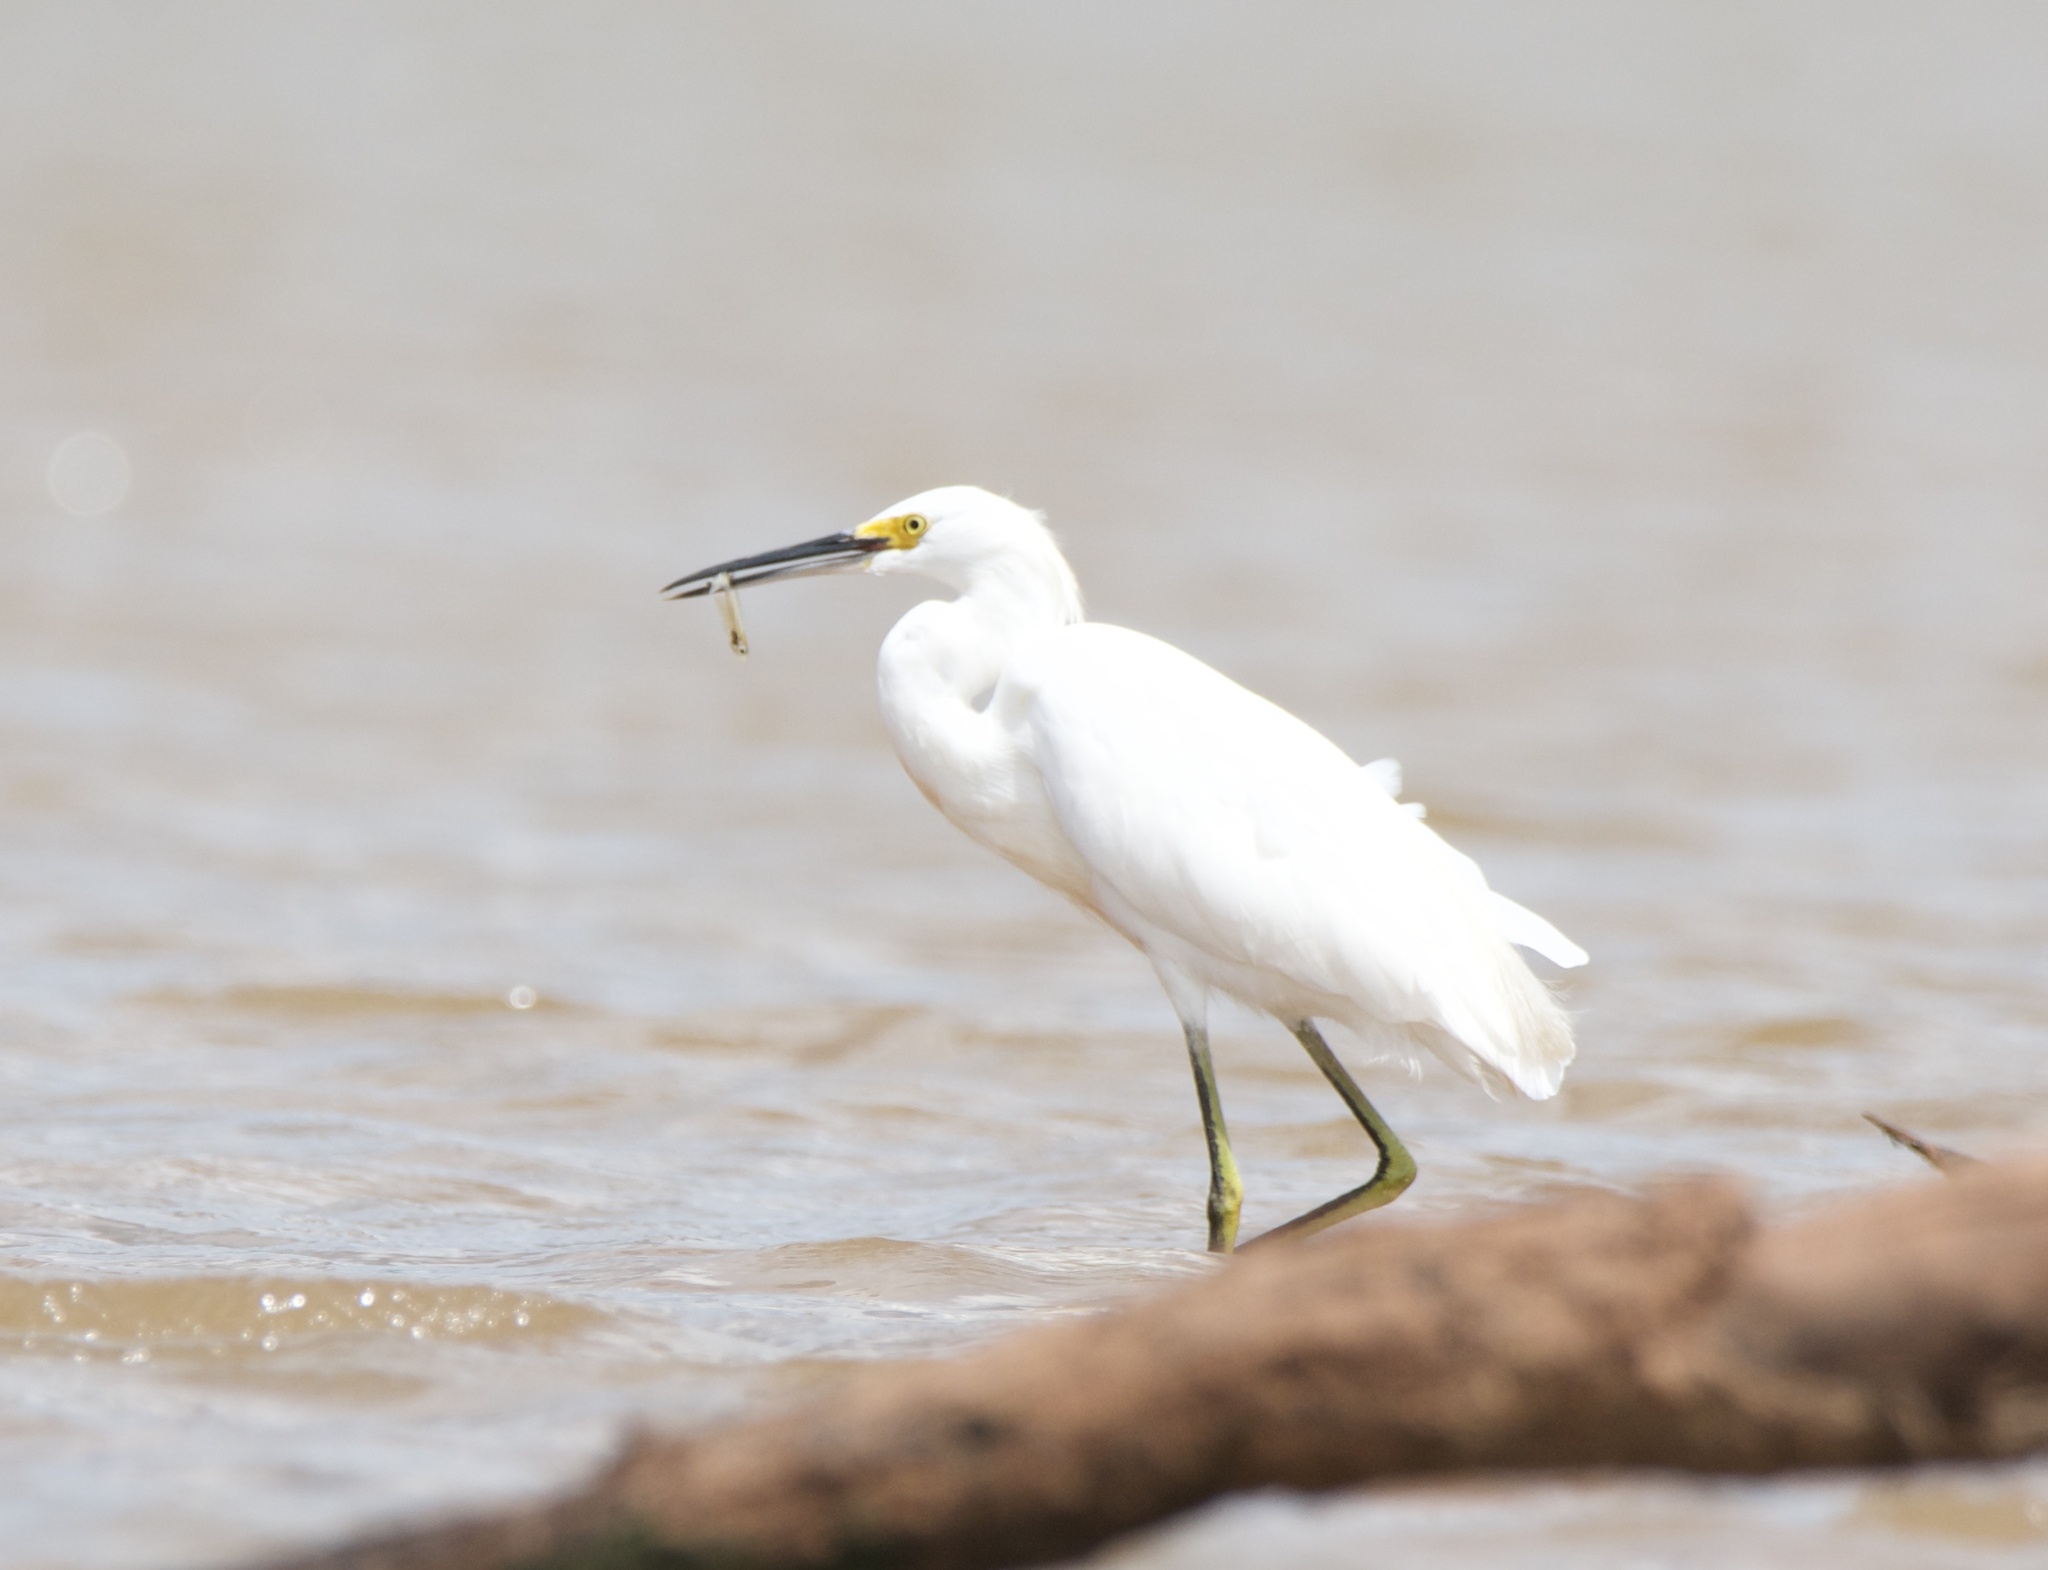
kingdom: Animalia
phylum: Chordata
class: Aves
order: Pelecaniformes
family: Ardeidae
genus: Egretta
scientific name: Egretta thula
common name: Snowy egret
